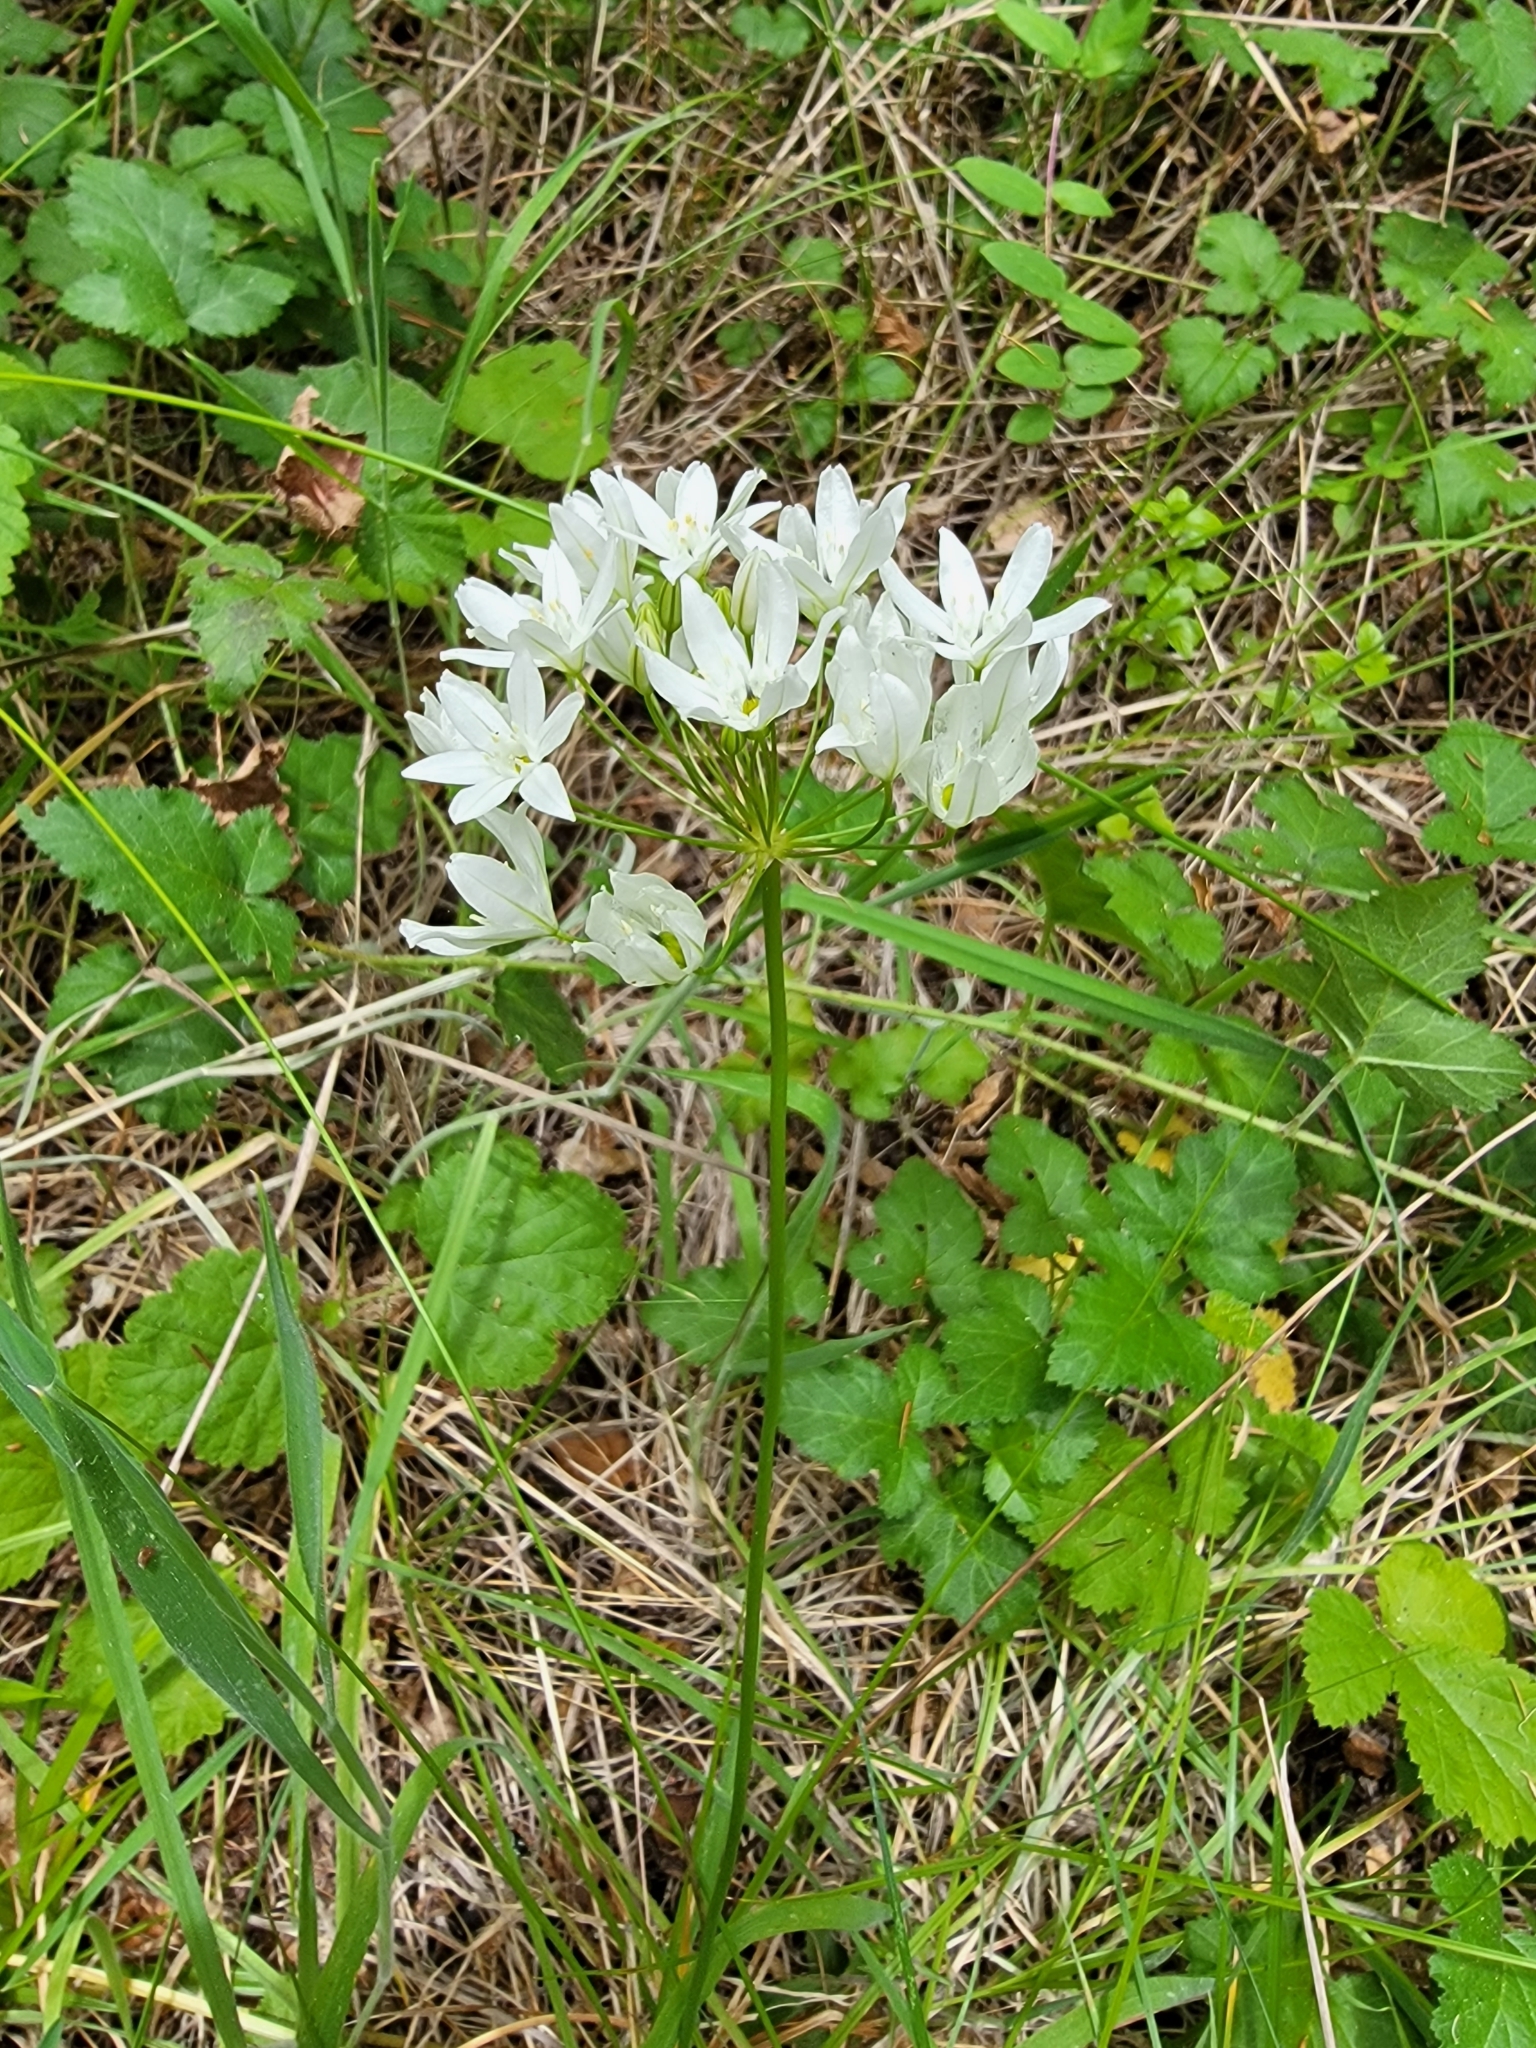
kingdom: Plantae
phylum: Tracheophyta
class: Liliopsida
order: Asparagales
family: Asparagaceae
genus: Triteleia
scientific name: Triteleia hyacinthina
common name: White brodiaea
